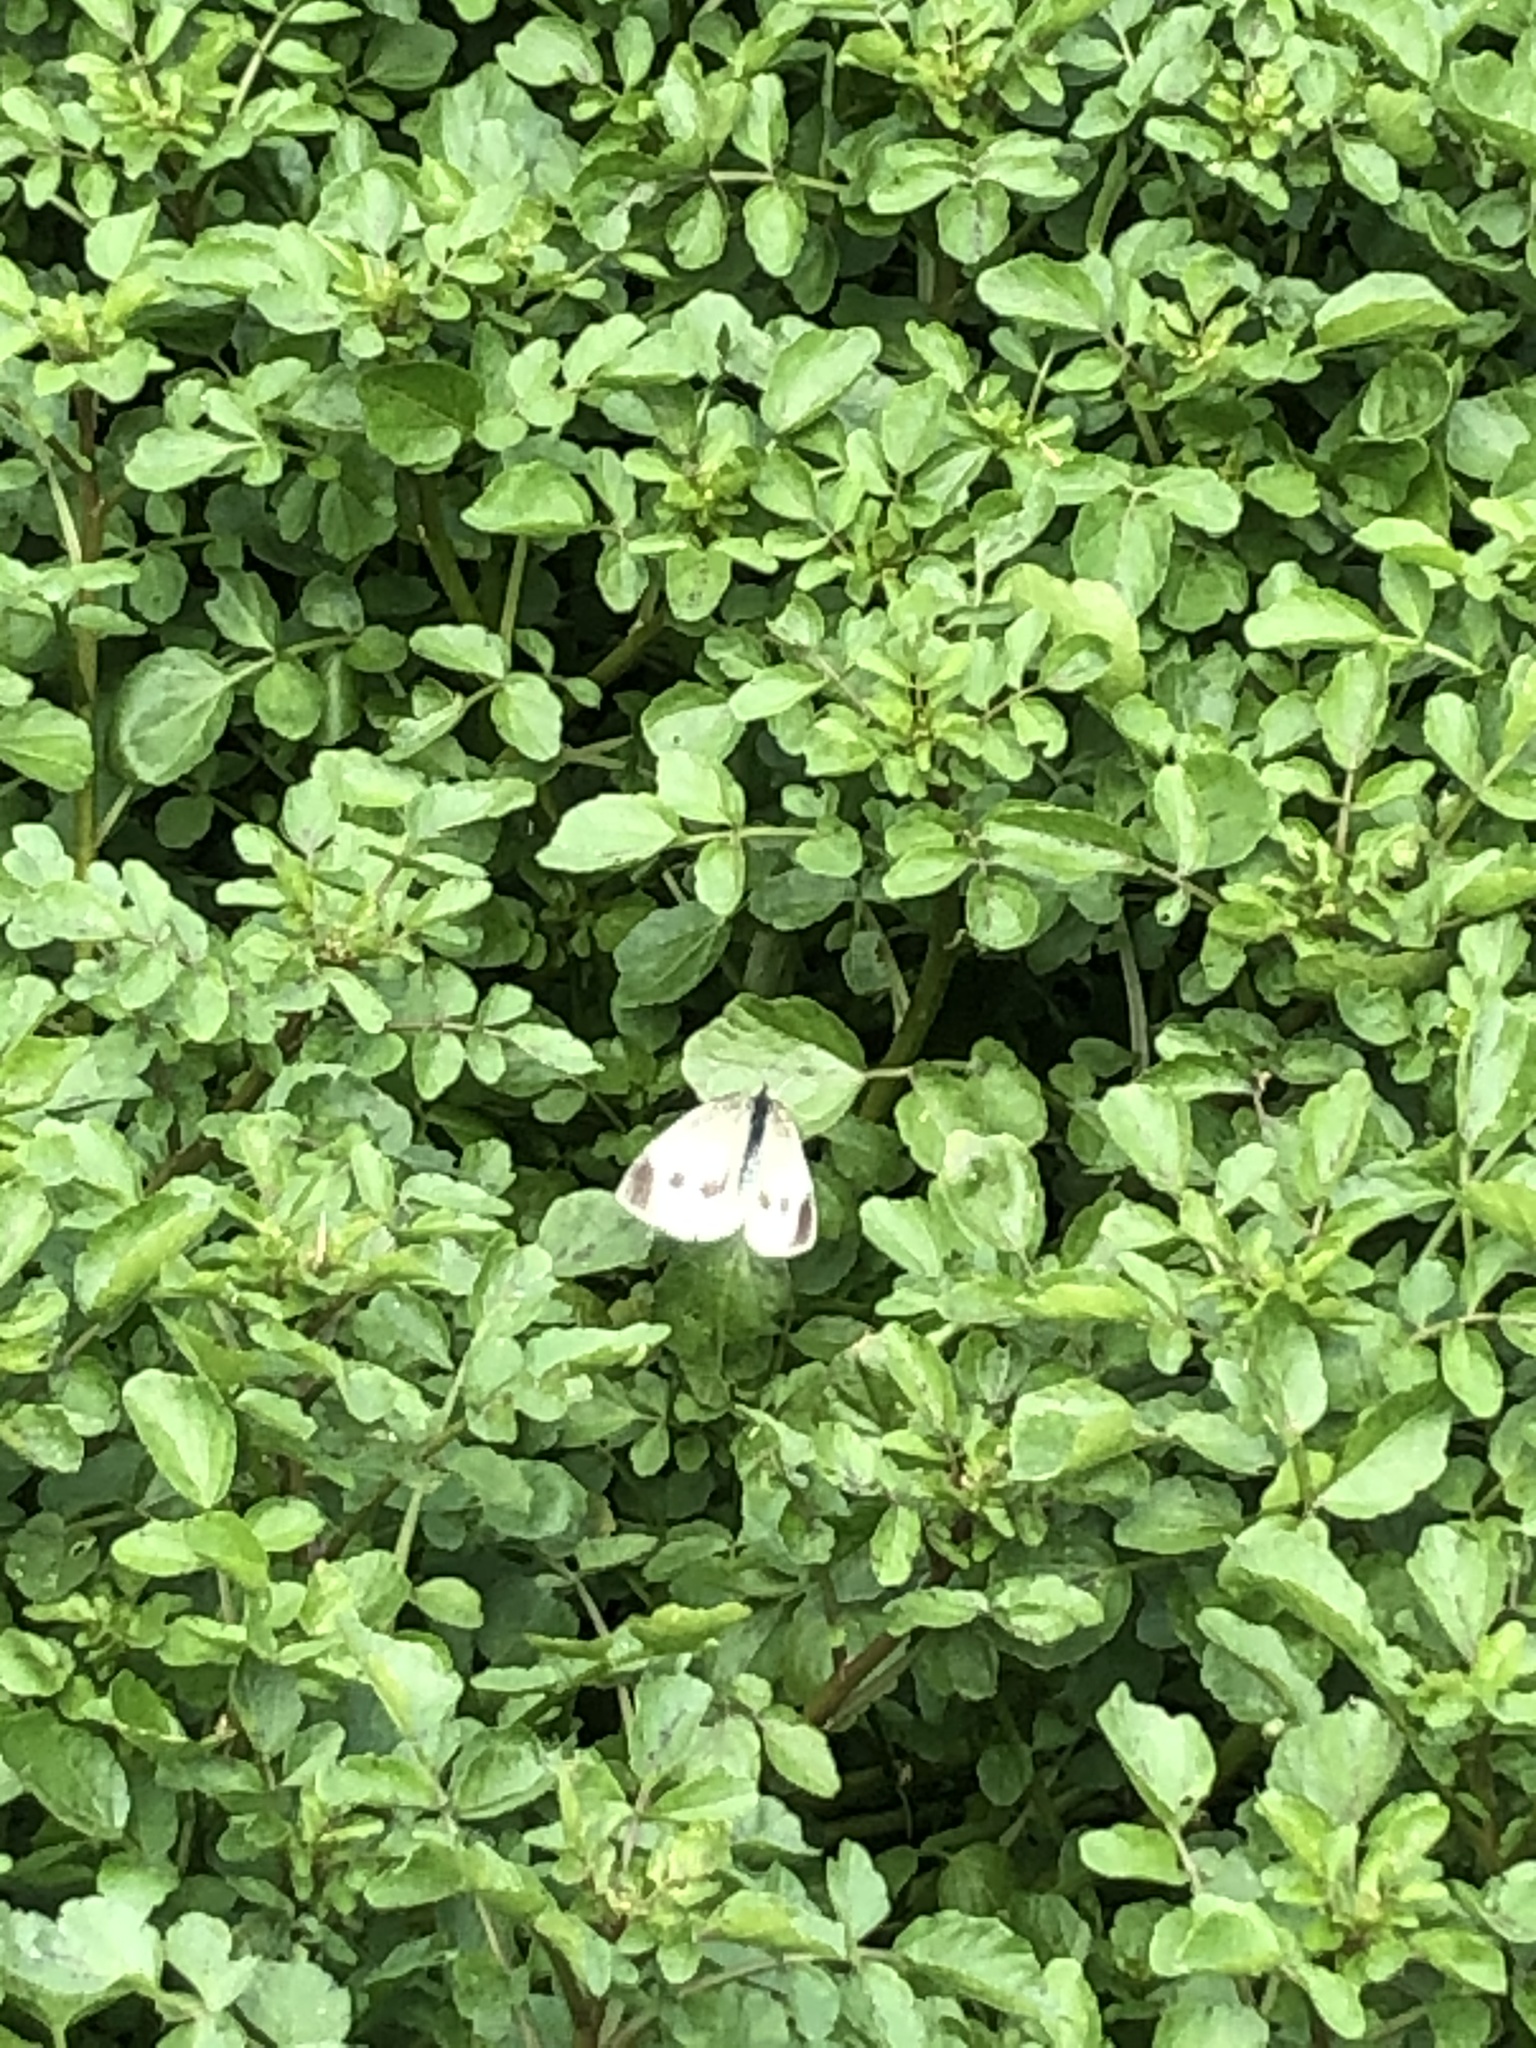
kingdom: Animalia
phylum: Arthropoda
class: Insecta
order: Lepidoptera
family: Pieridae
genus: Pieris
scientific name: Pieris rapae
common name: Small white
